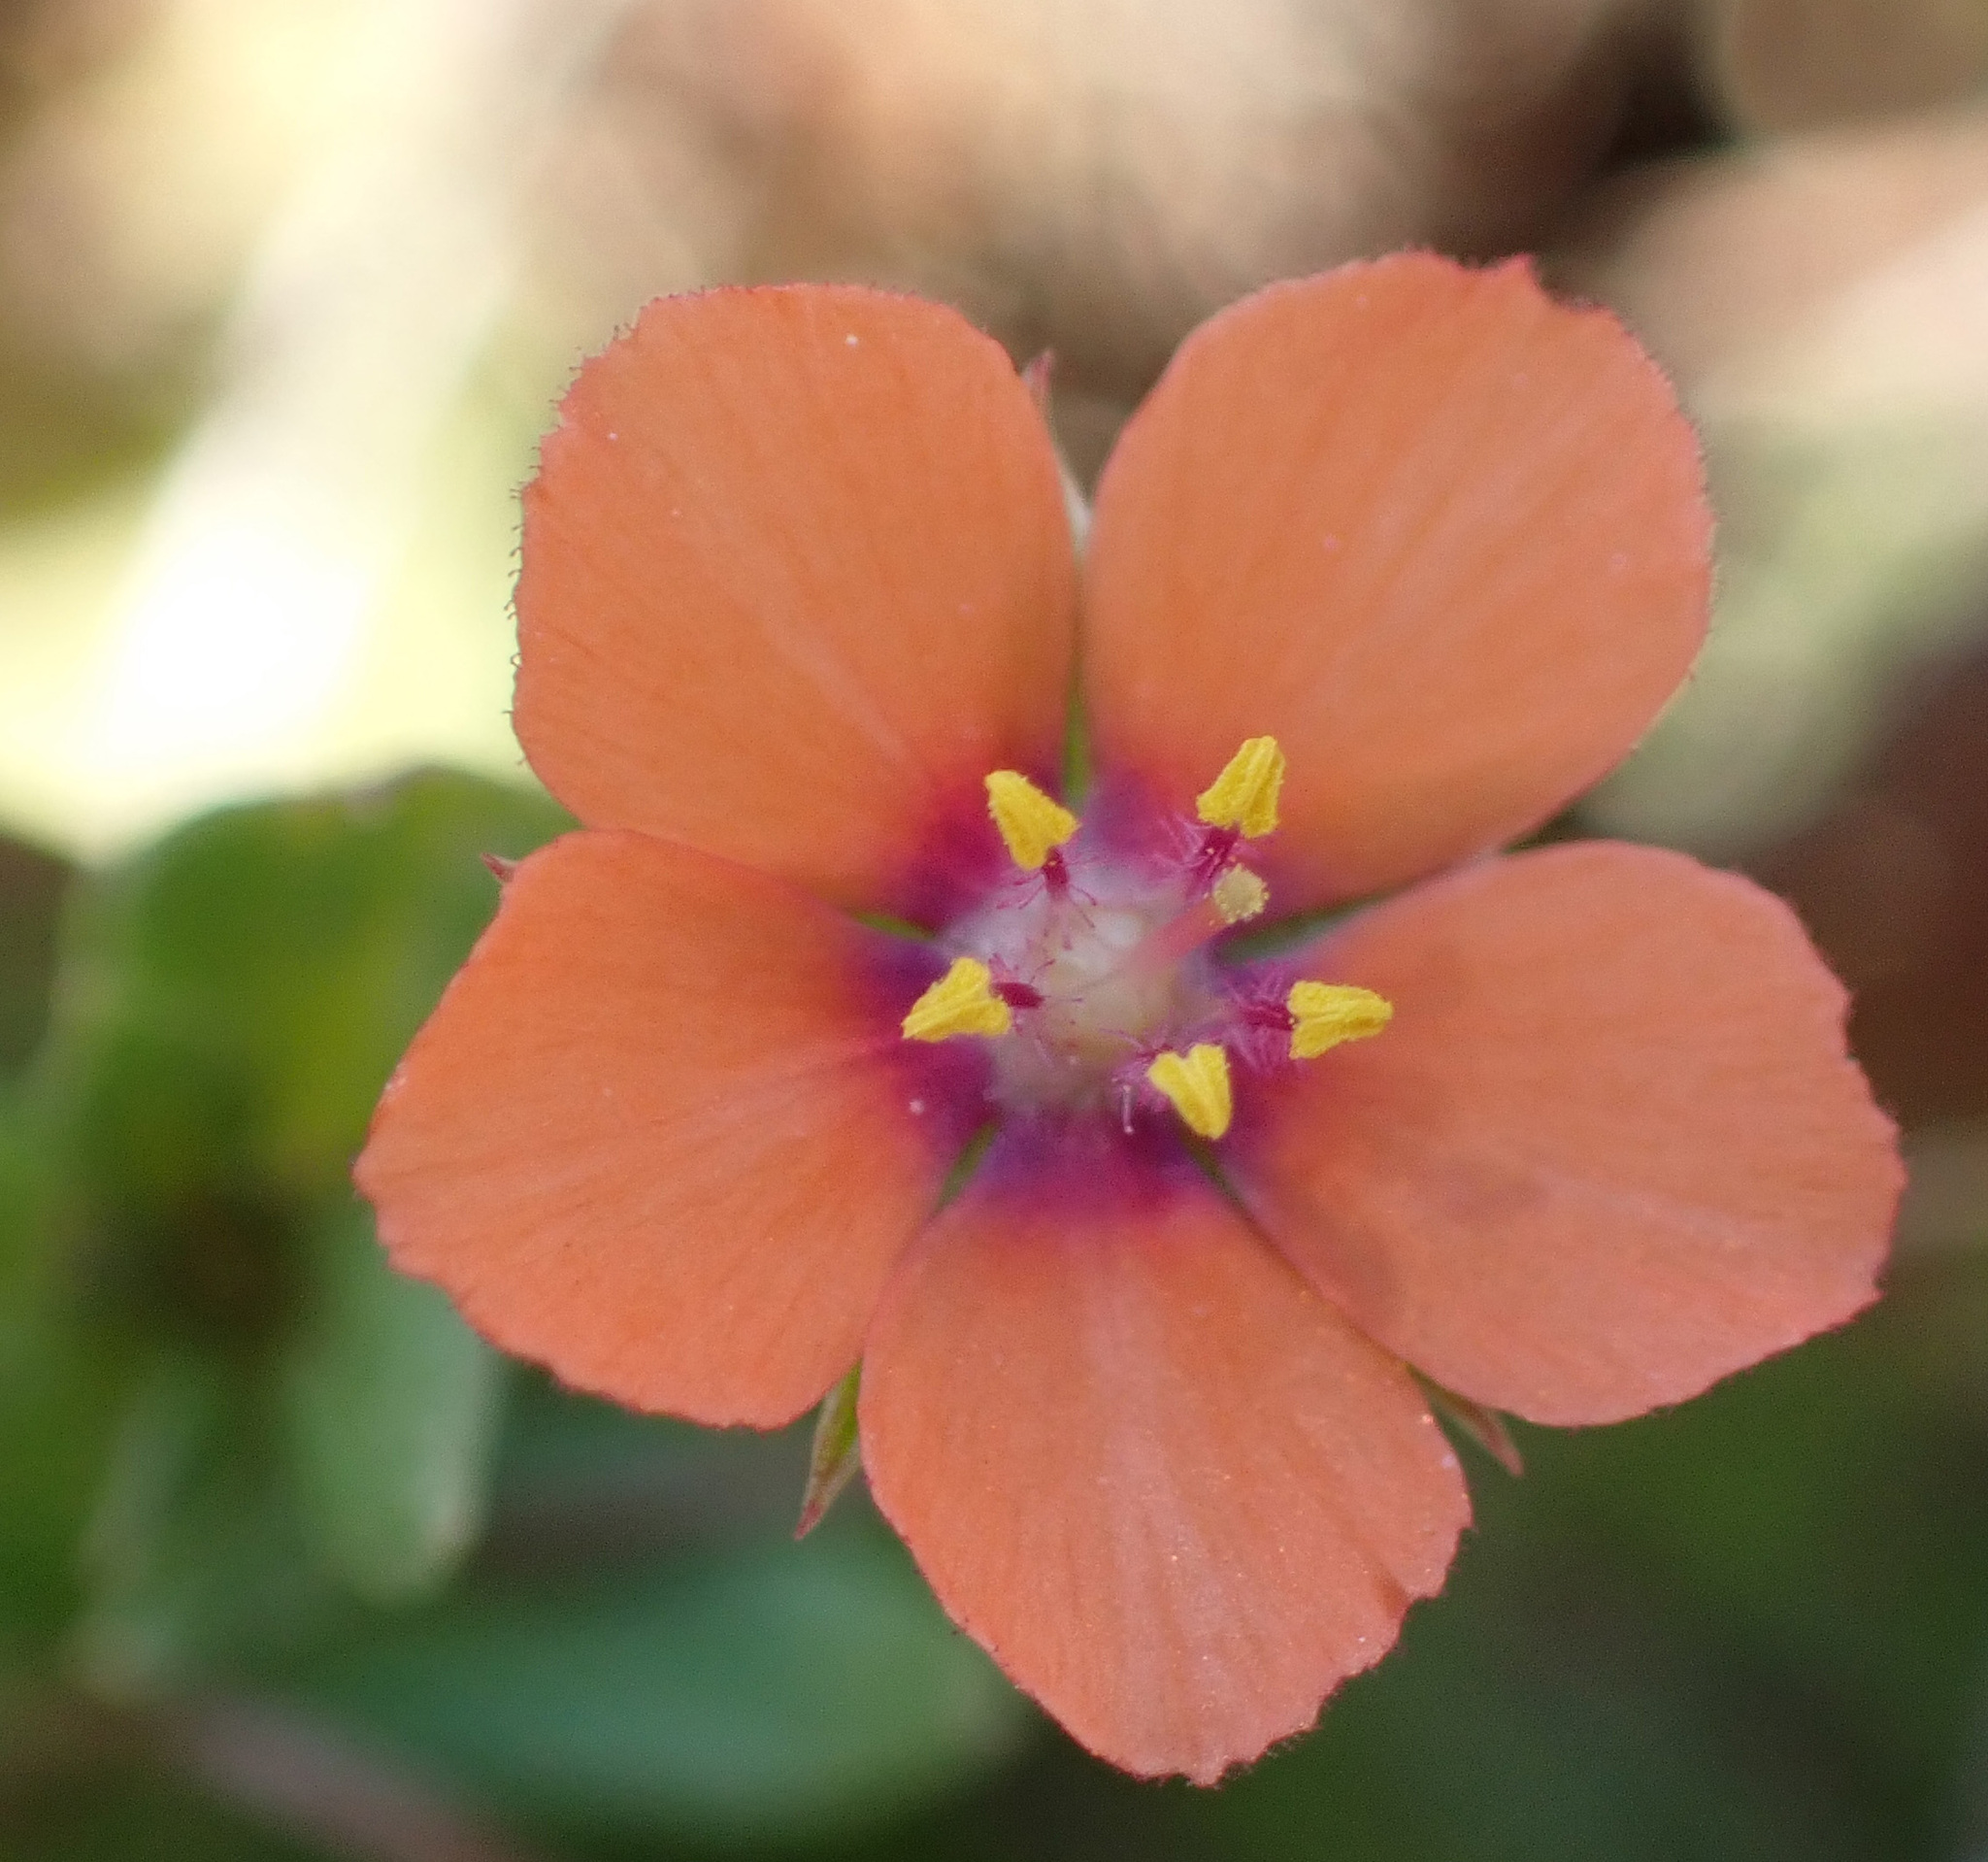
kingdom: Plantae
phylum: Tracheophyta
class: Magnoliopsida
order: Ericales
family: Primulaceae
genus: Lysimachia
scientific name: Lysimachia arvensis
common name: Scarlet pimpernel
